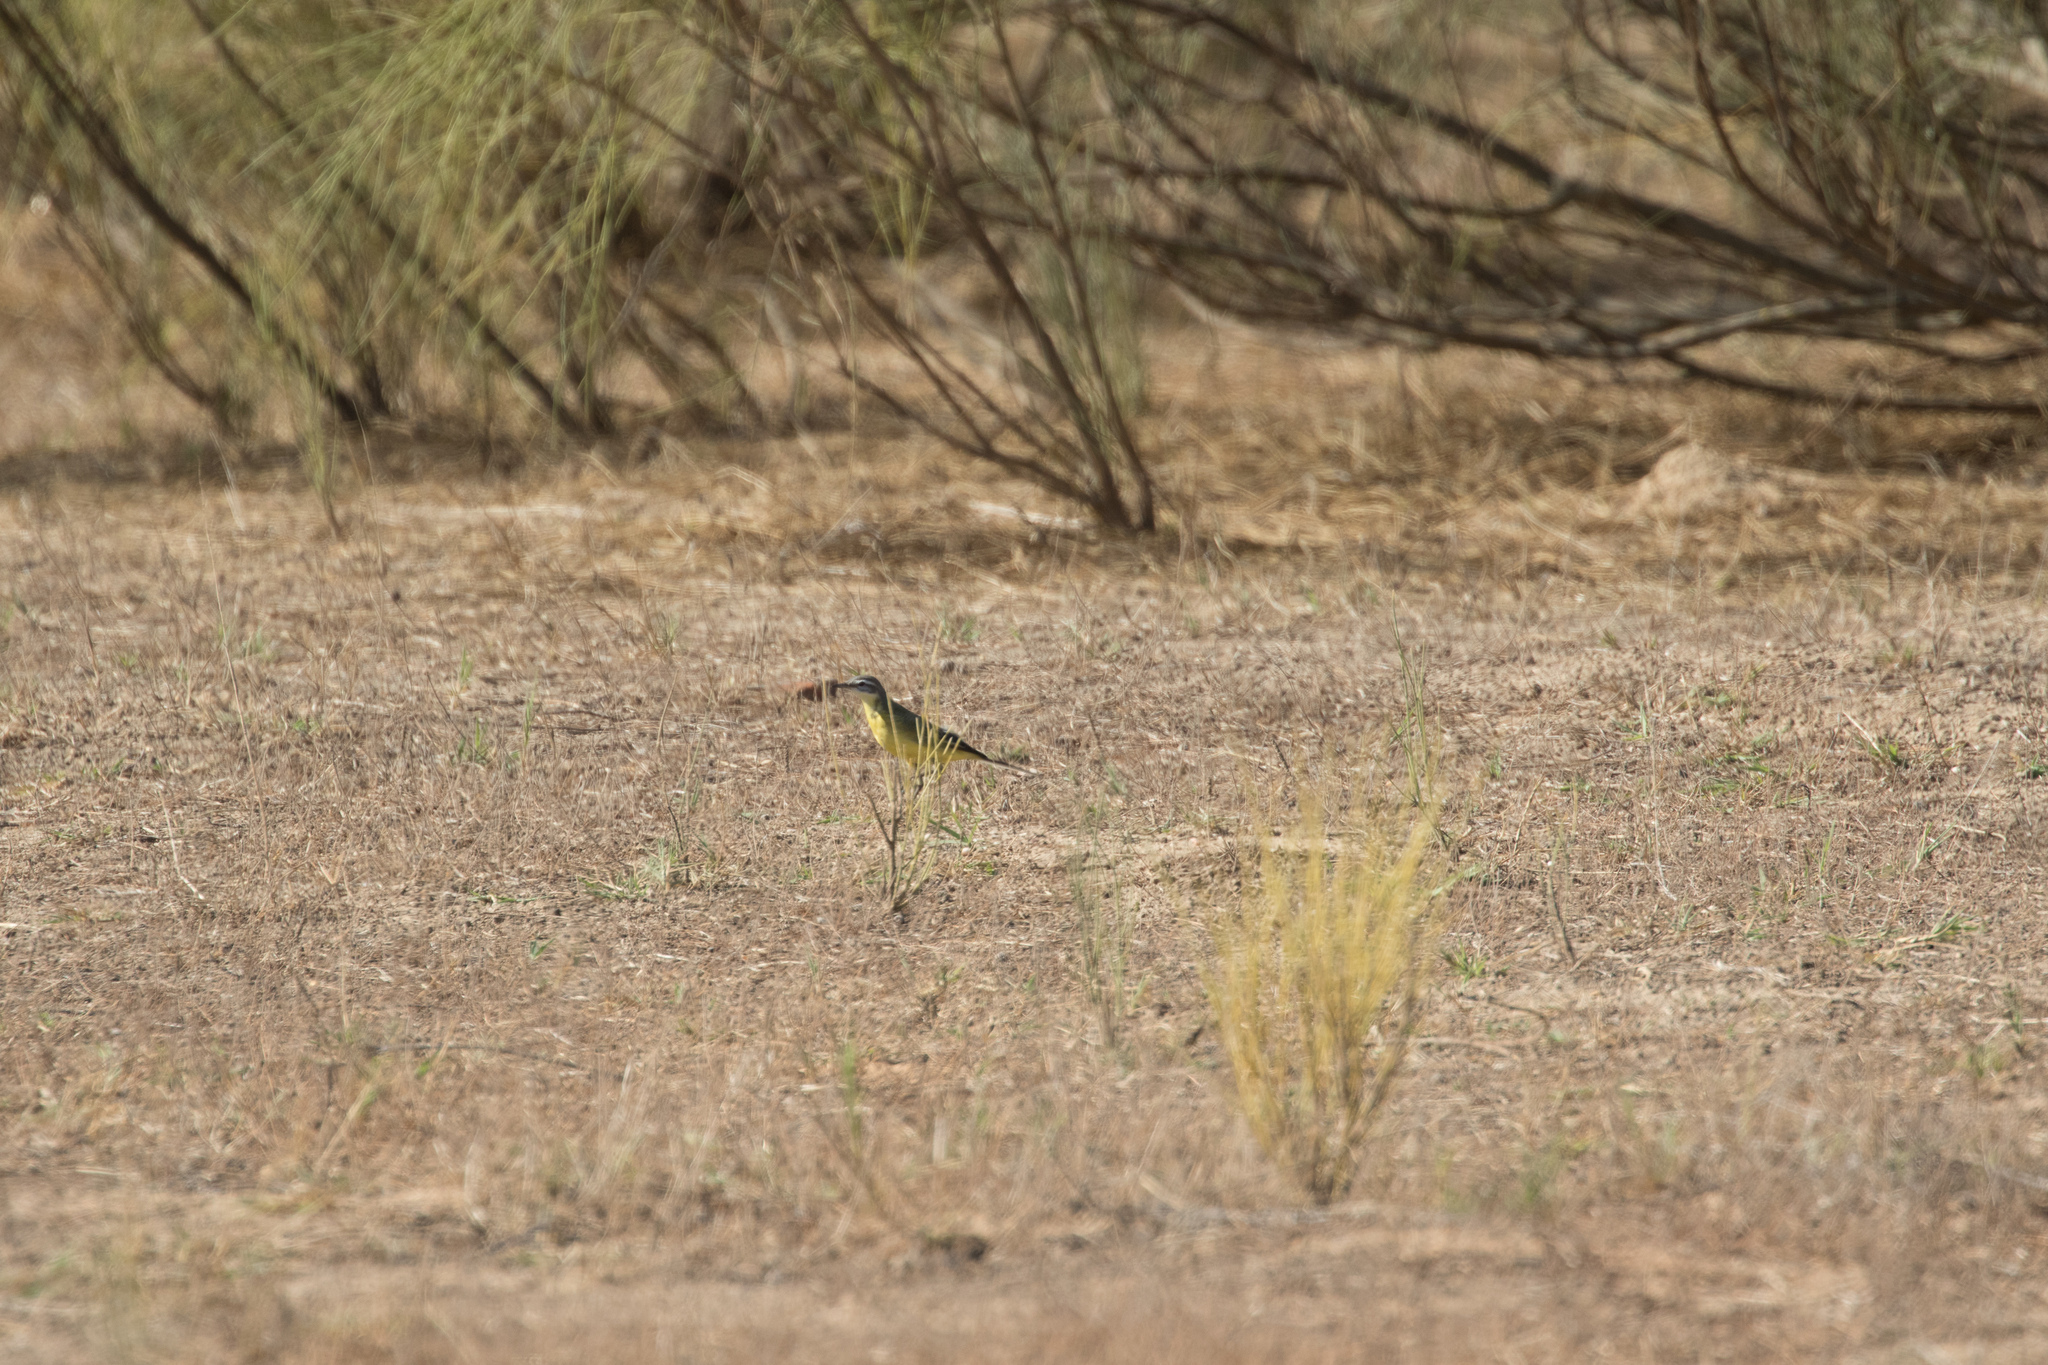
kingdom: Animalia
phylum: Chordata
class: Aves
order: Passeriformes
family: Motacillidae
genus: Motacilla
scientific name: Motacilla flava
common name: Western yellow wagtail
